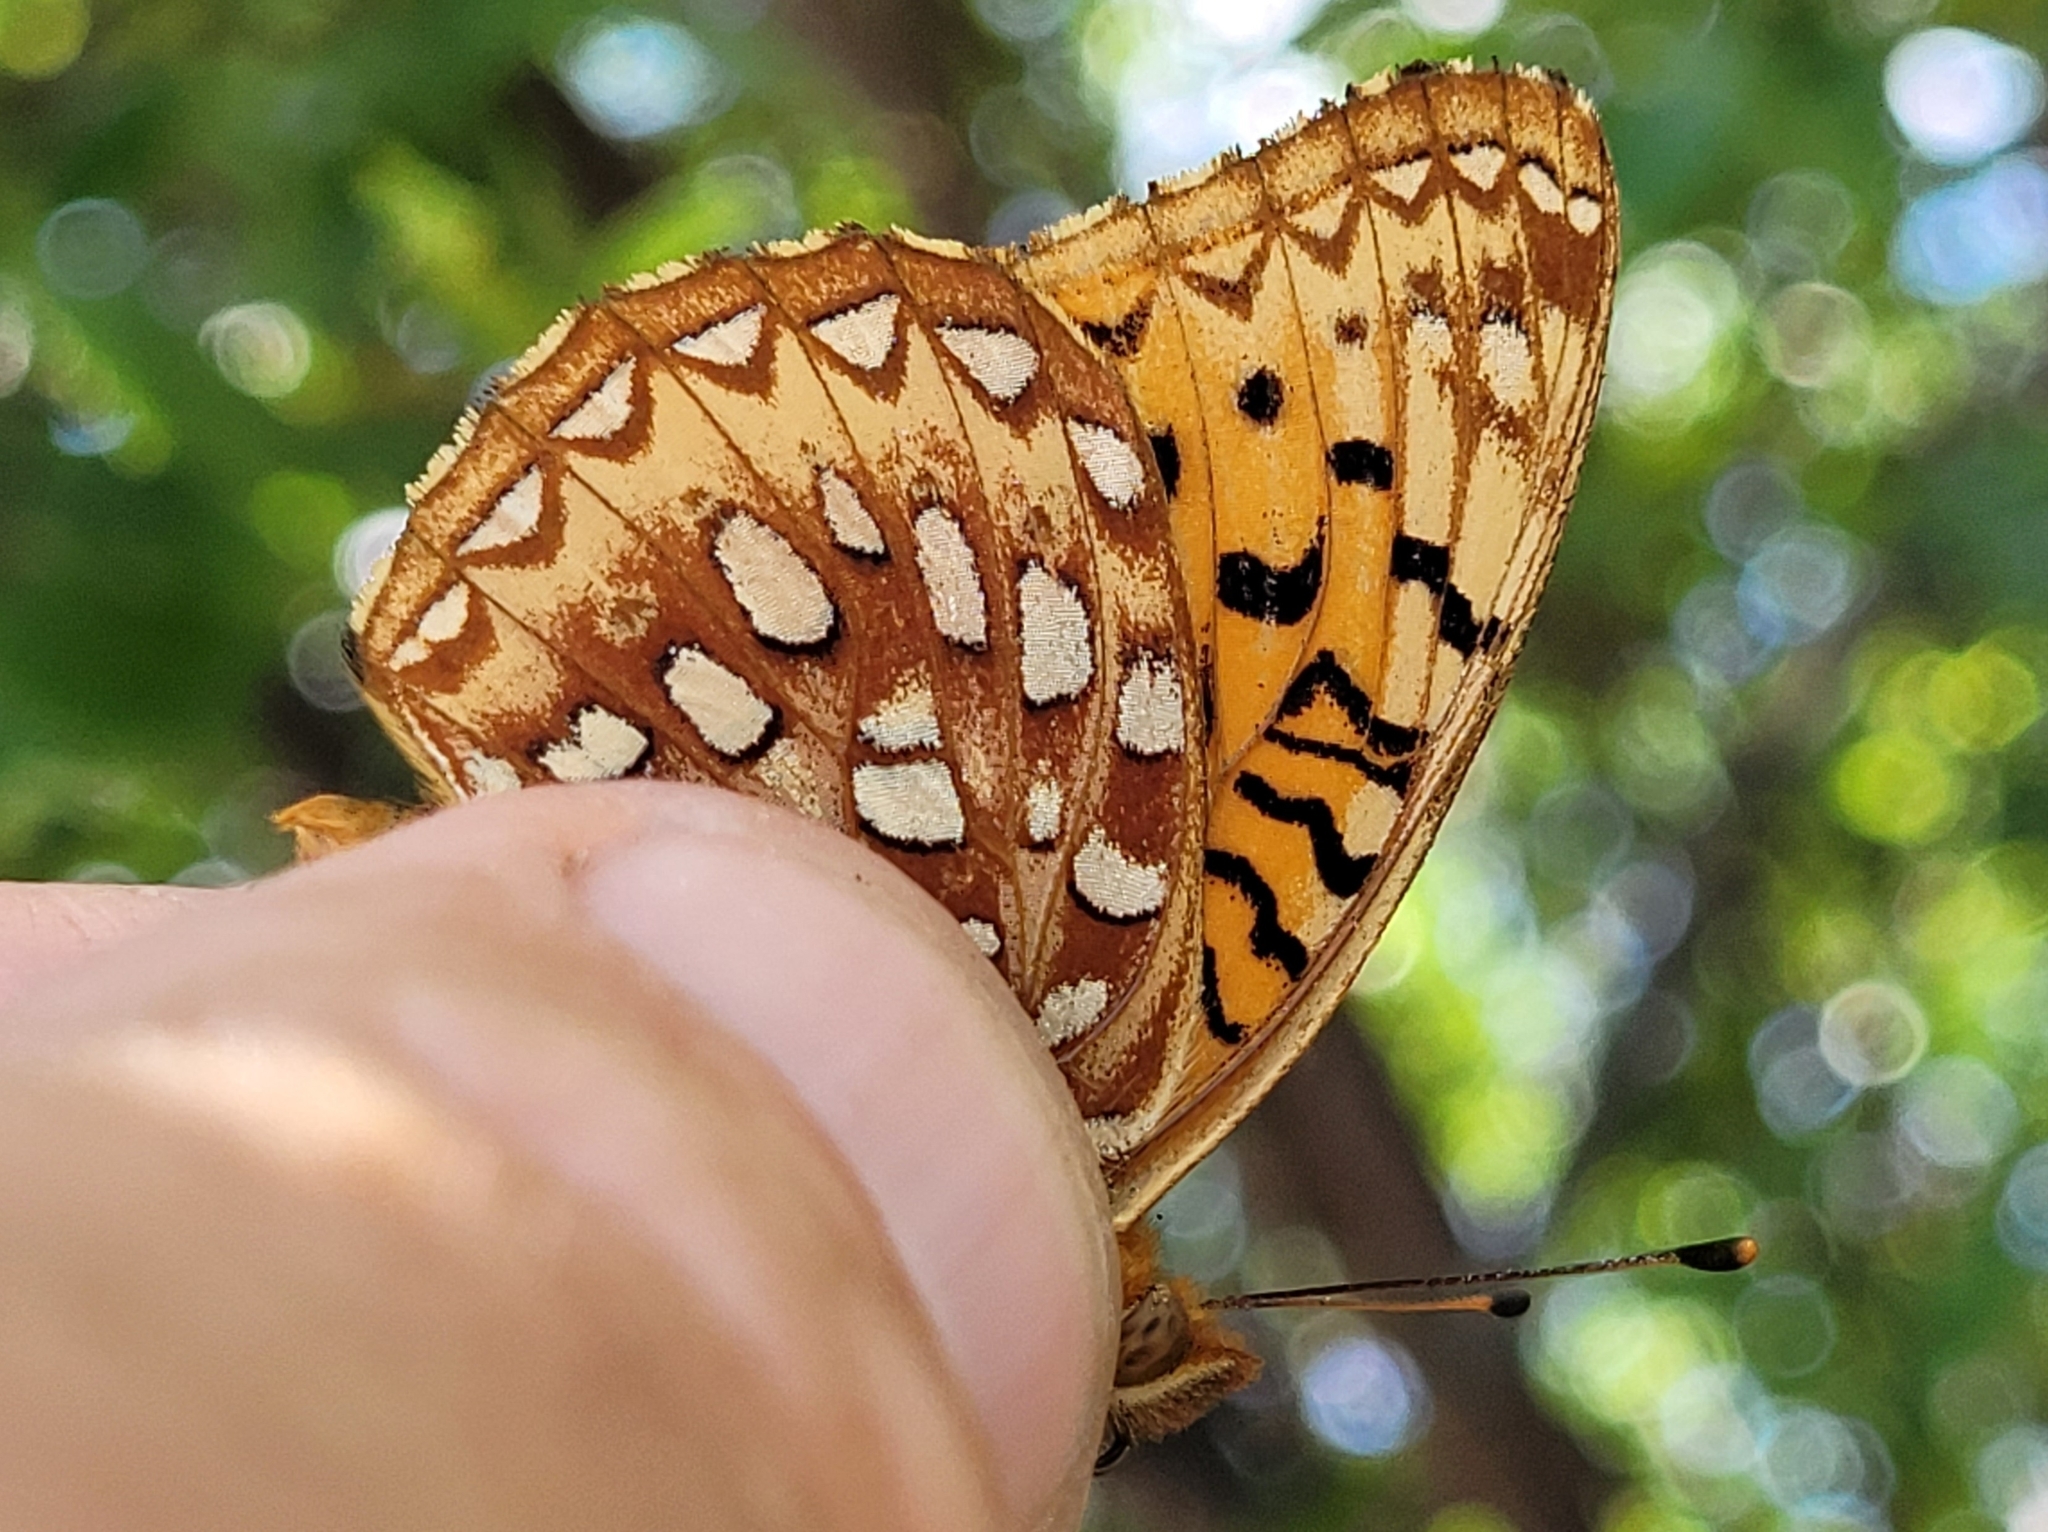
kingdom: Animalia
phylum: Arthropoda
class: Insecta
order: Lepidoptera
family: Nymphalidae
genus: Speyeria
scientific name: Speyeria aphrodite
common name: Aphrodite friitllary
